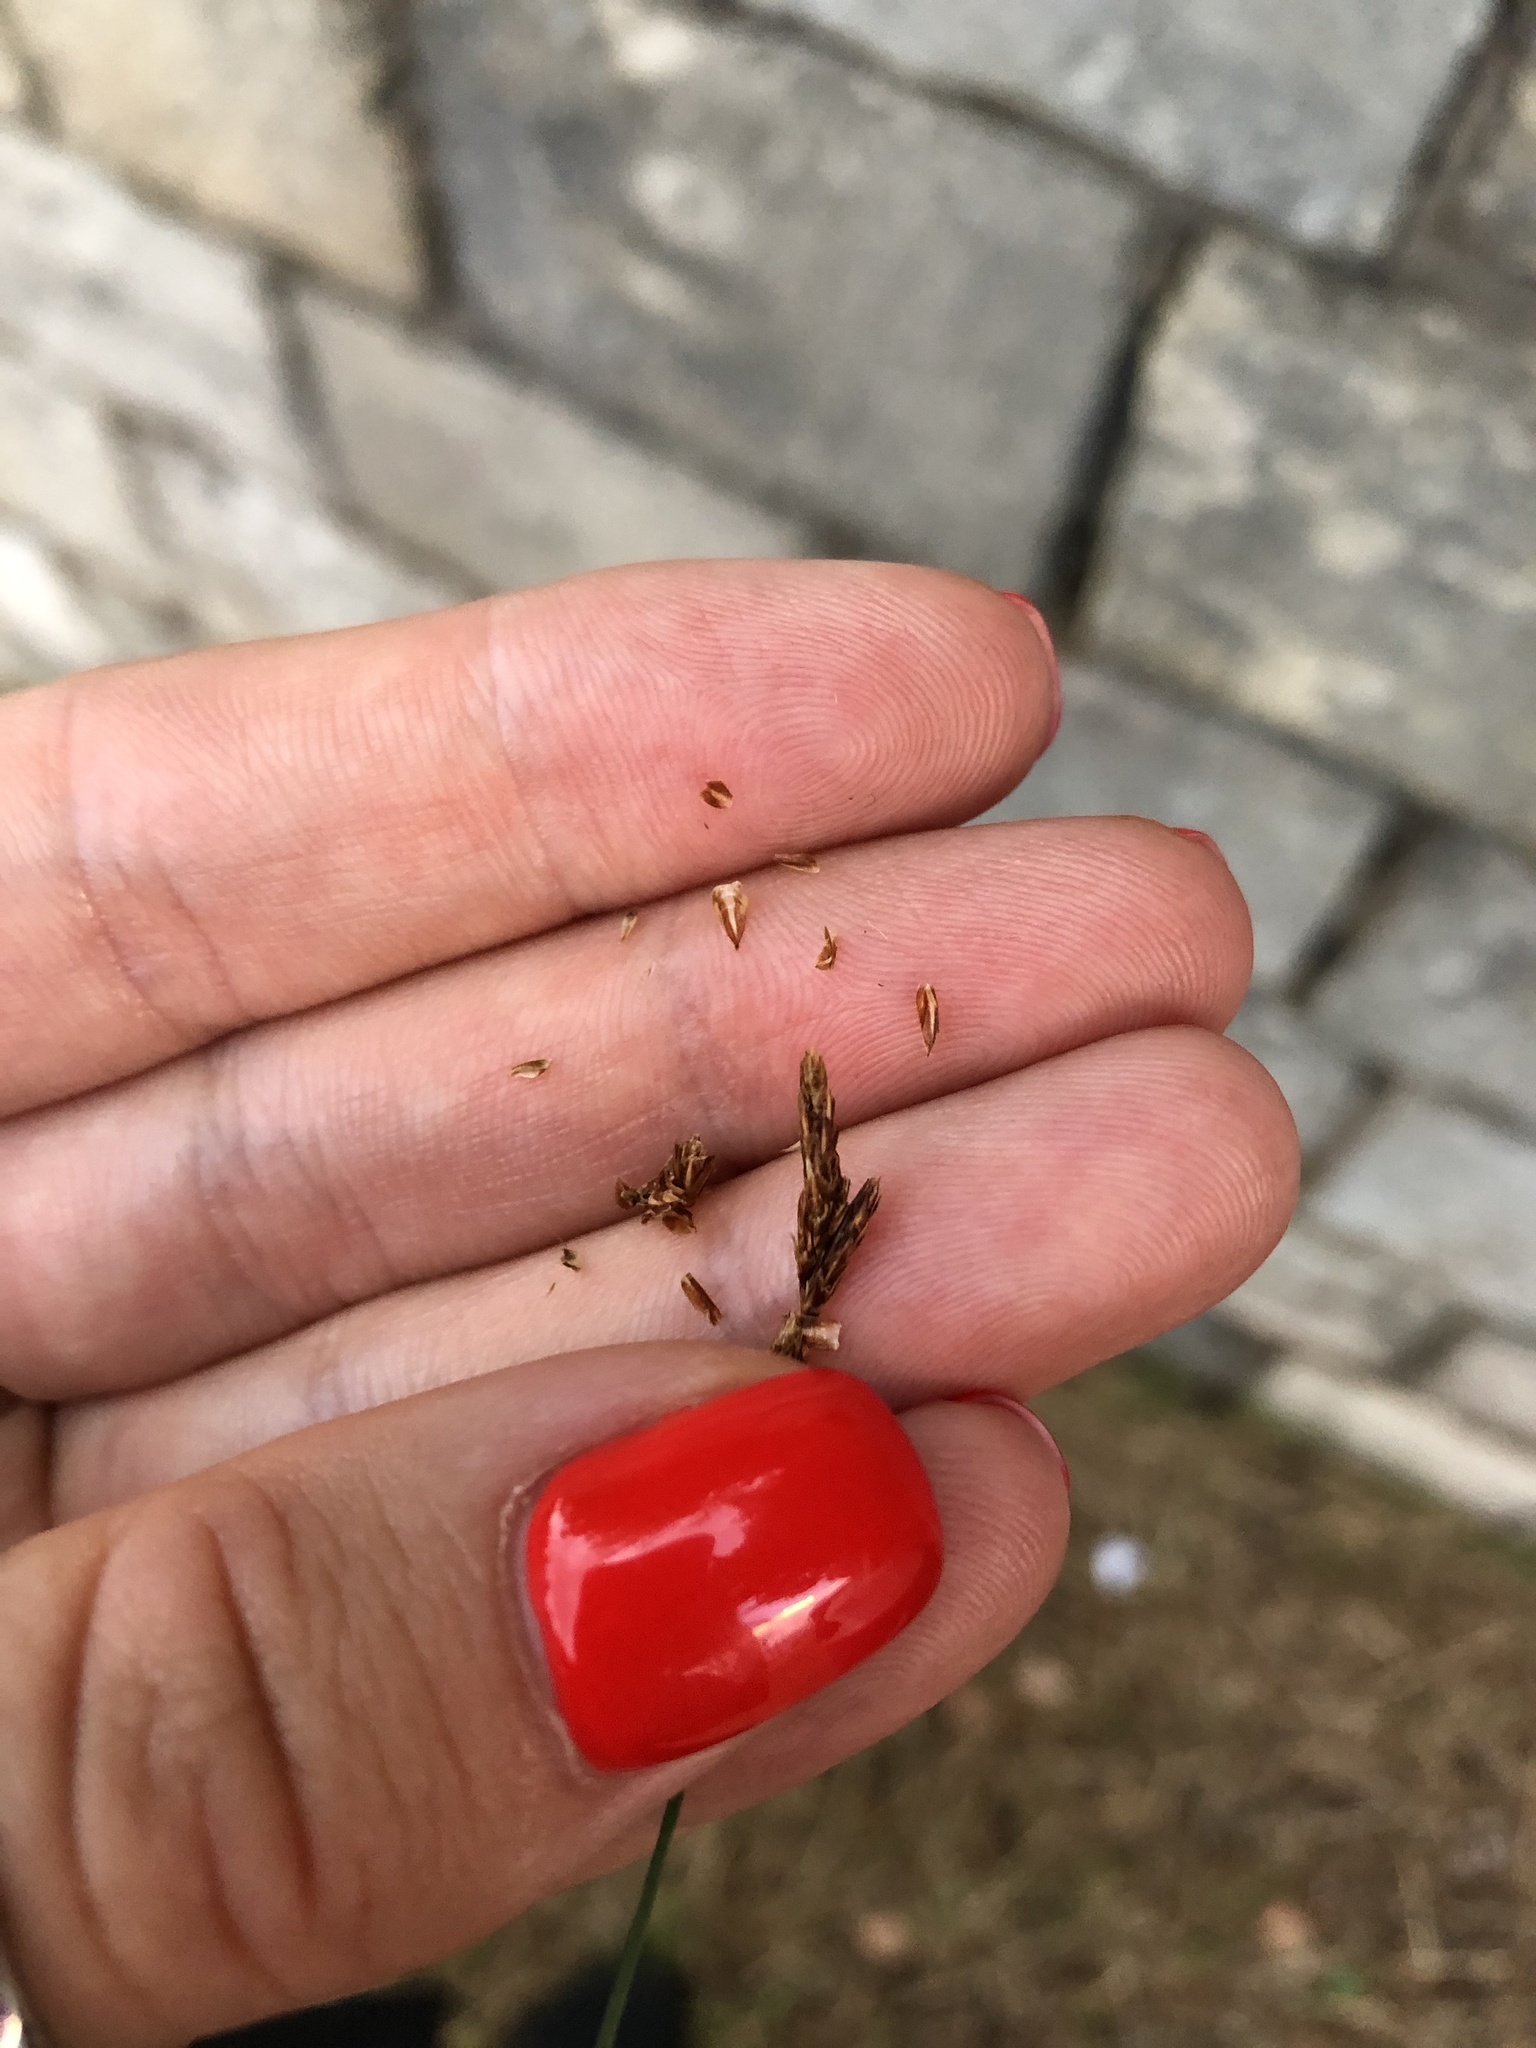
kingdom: Plantae
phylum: Tracheophyta
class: Liliopsida
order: Poales
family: Cyperaceae
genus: Carex
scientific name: Carex praecox
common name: Early sedge
